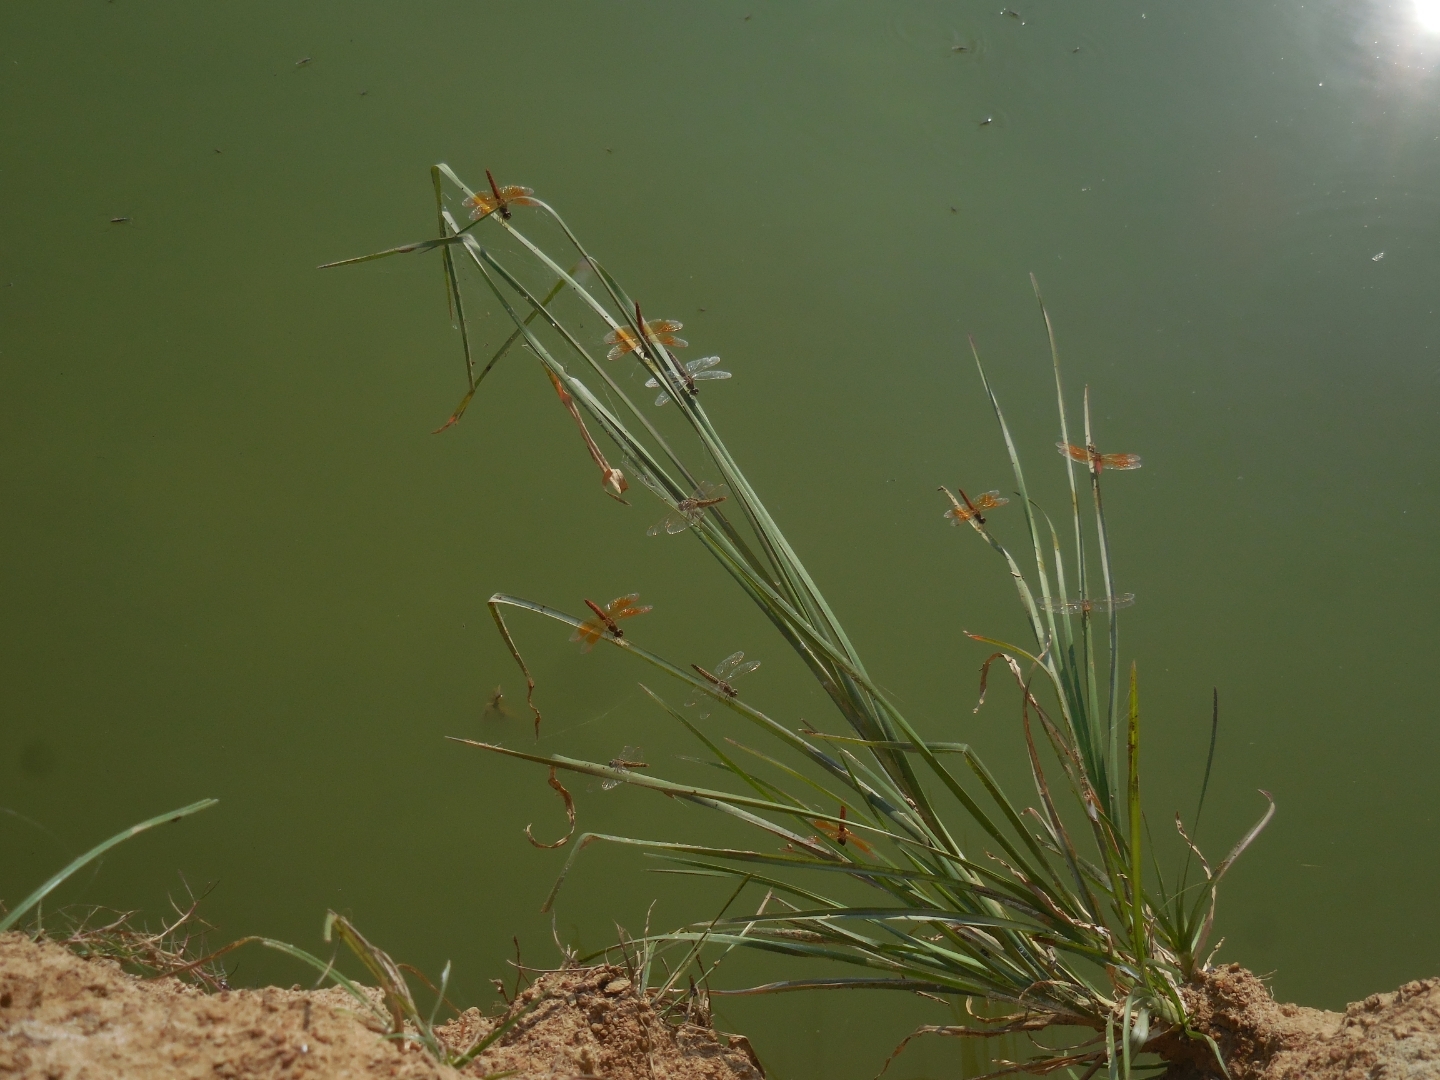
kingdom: Animalia
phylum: Arthropoda
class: Insecta
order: Odonata
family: Libellulidae
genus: Brachythemis
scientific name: Brachythemis contaminata
